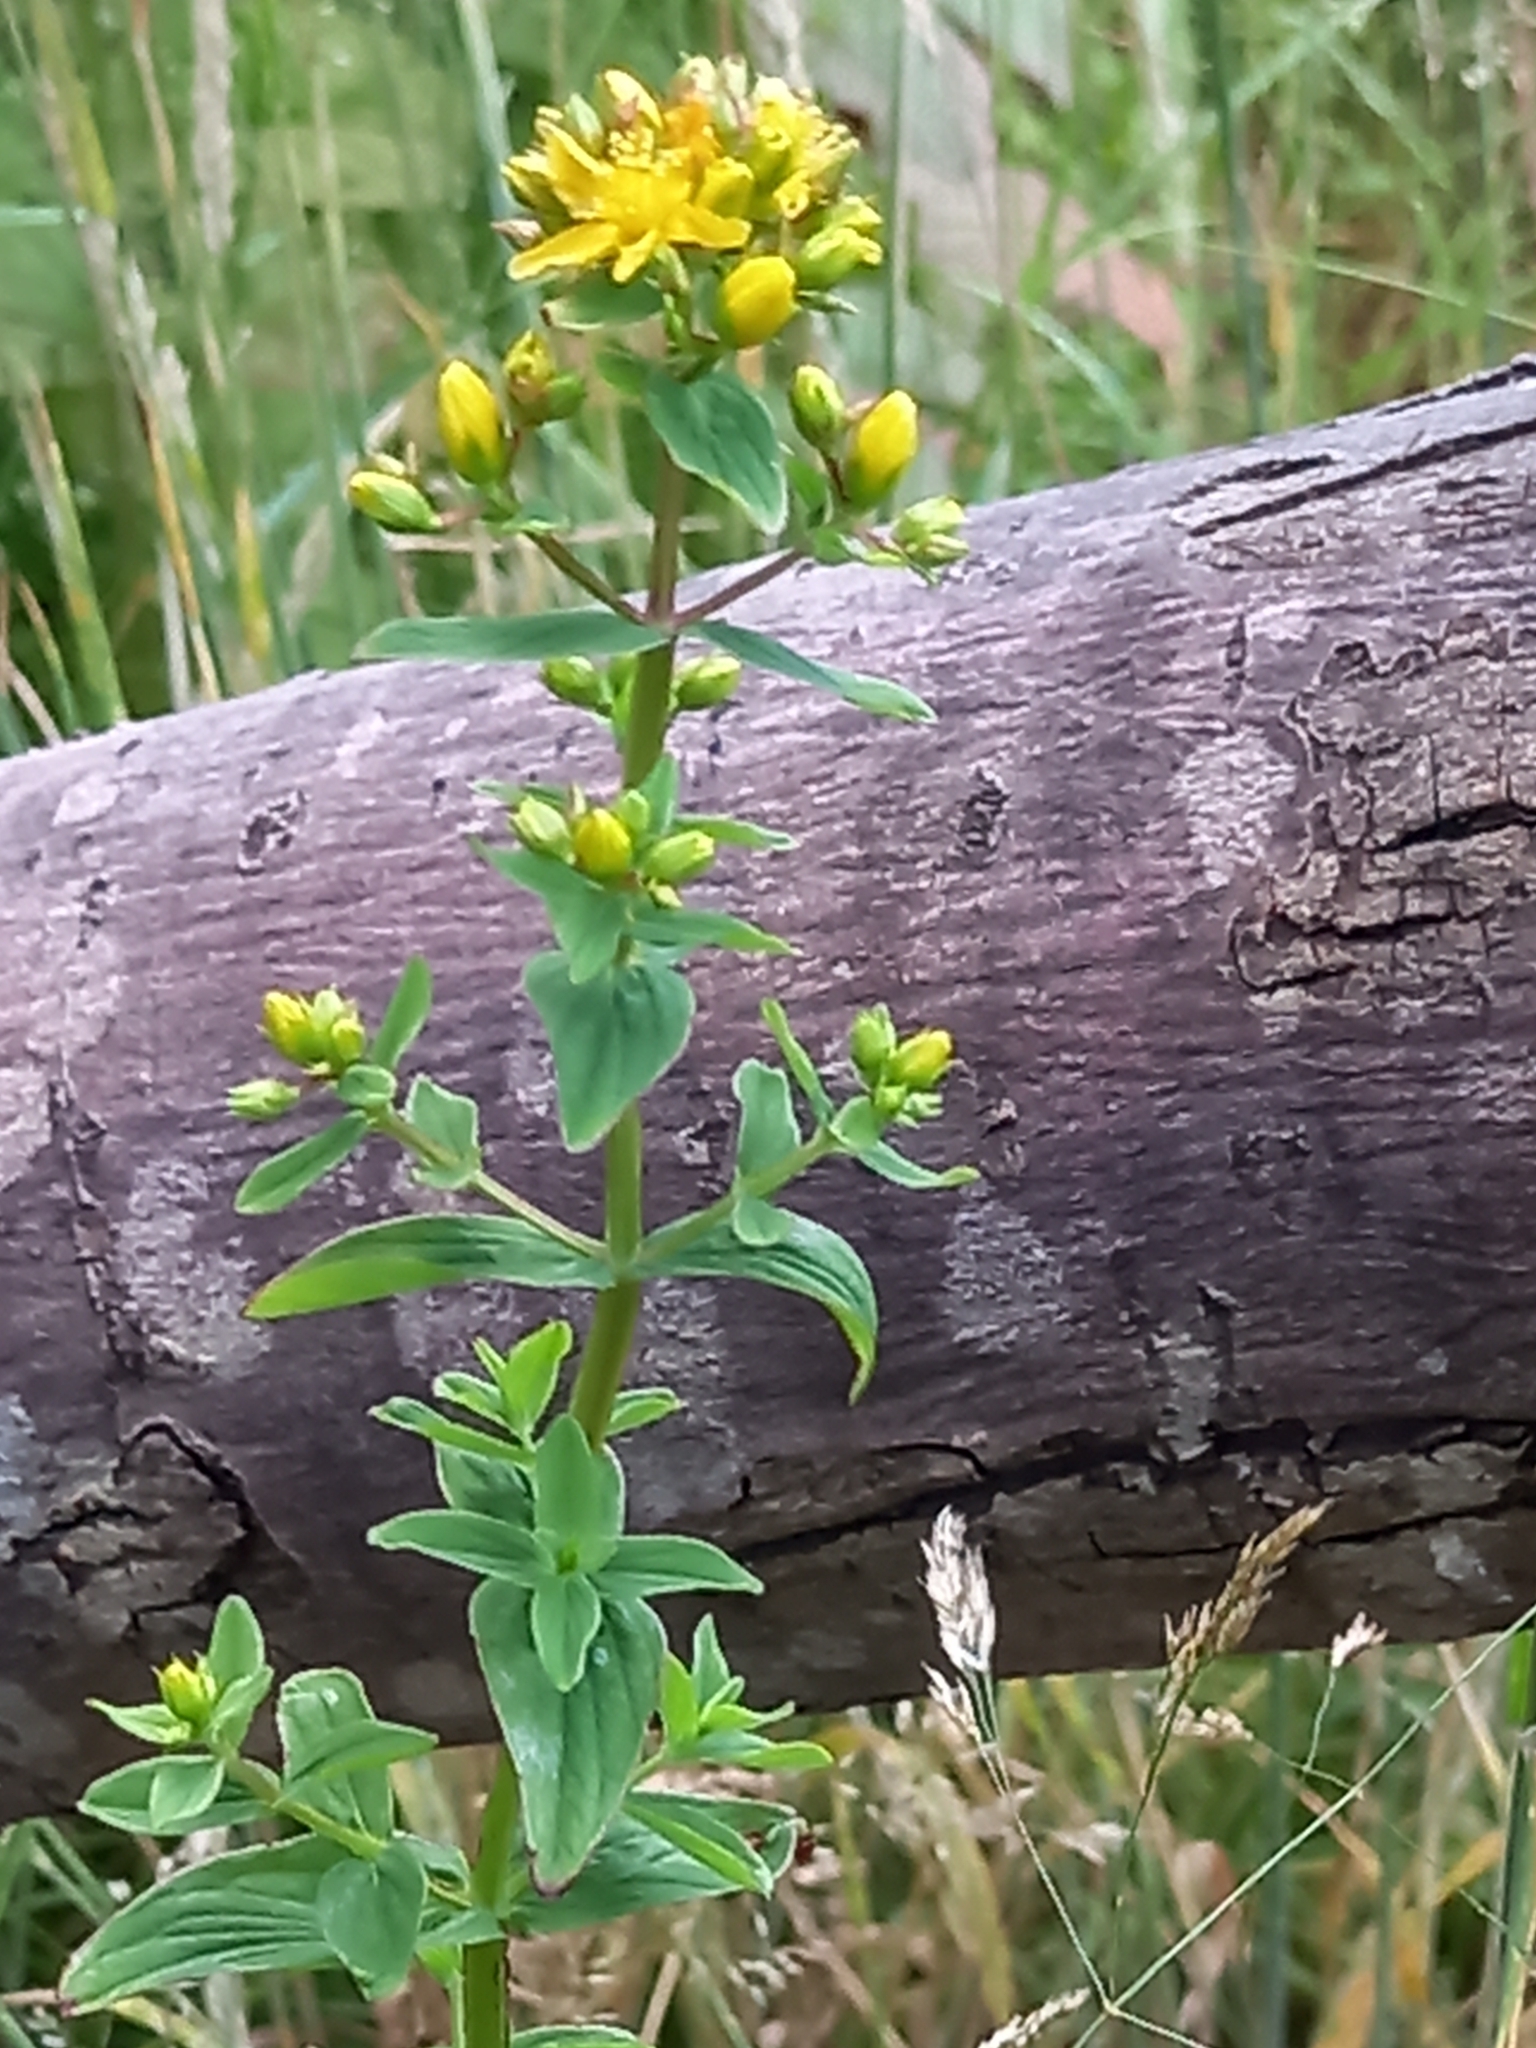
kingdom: Plantae
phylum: Tracheophyta
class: Magnoliopsida
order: Malpighiales
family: Hypericaceae
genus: Hypericum
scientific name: Hypericum tetrapterum
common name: Square-stalked st. john's-wort
